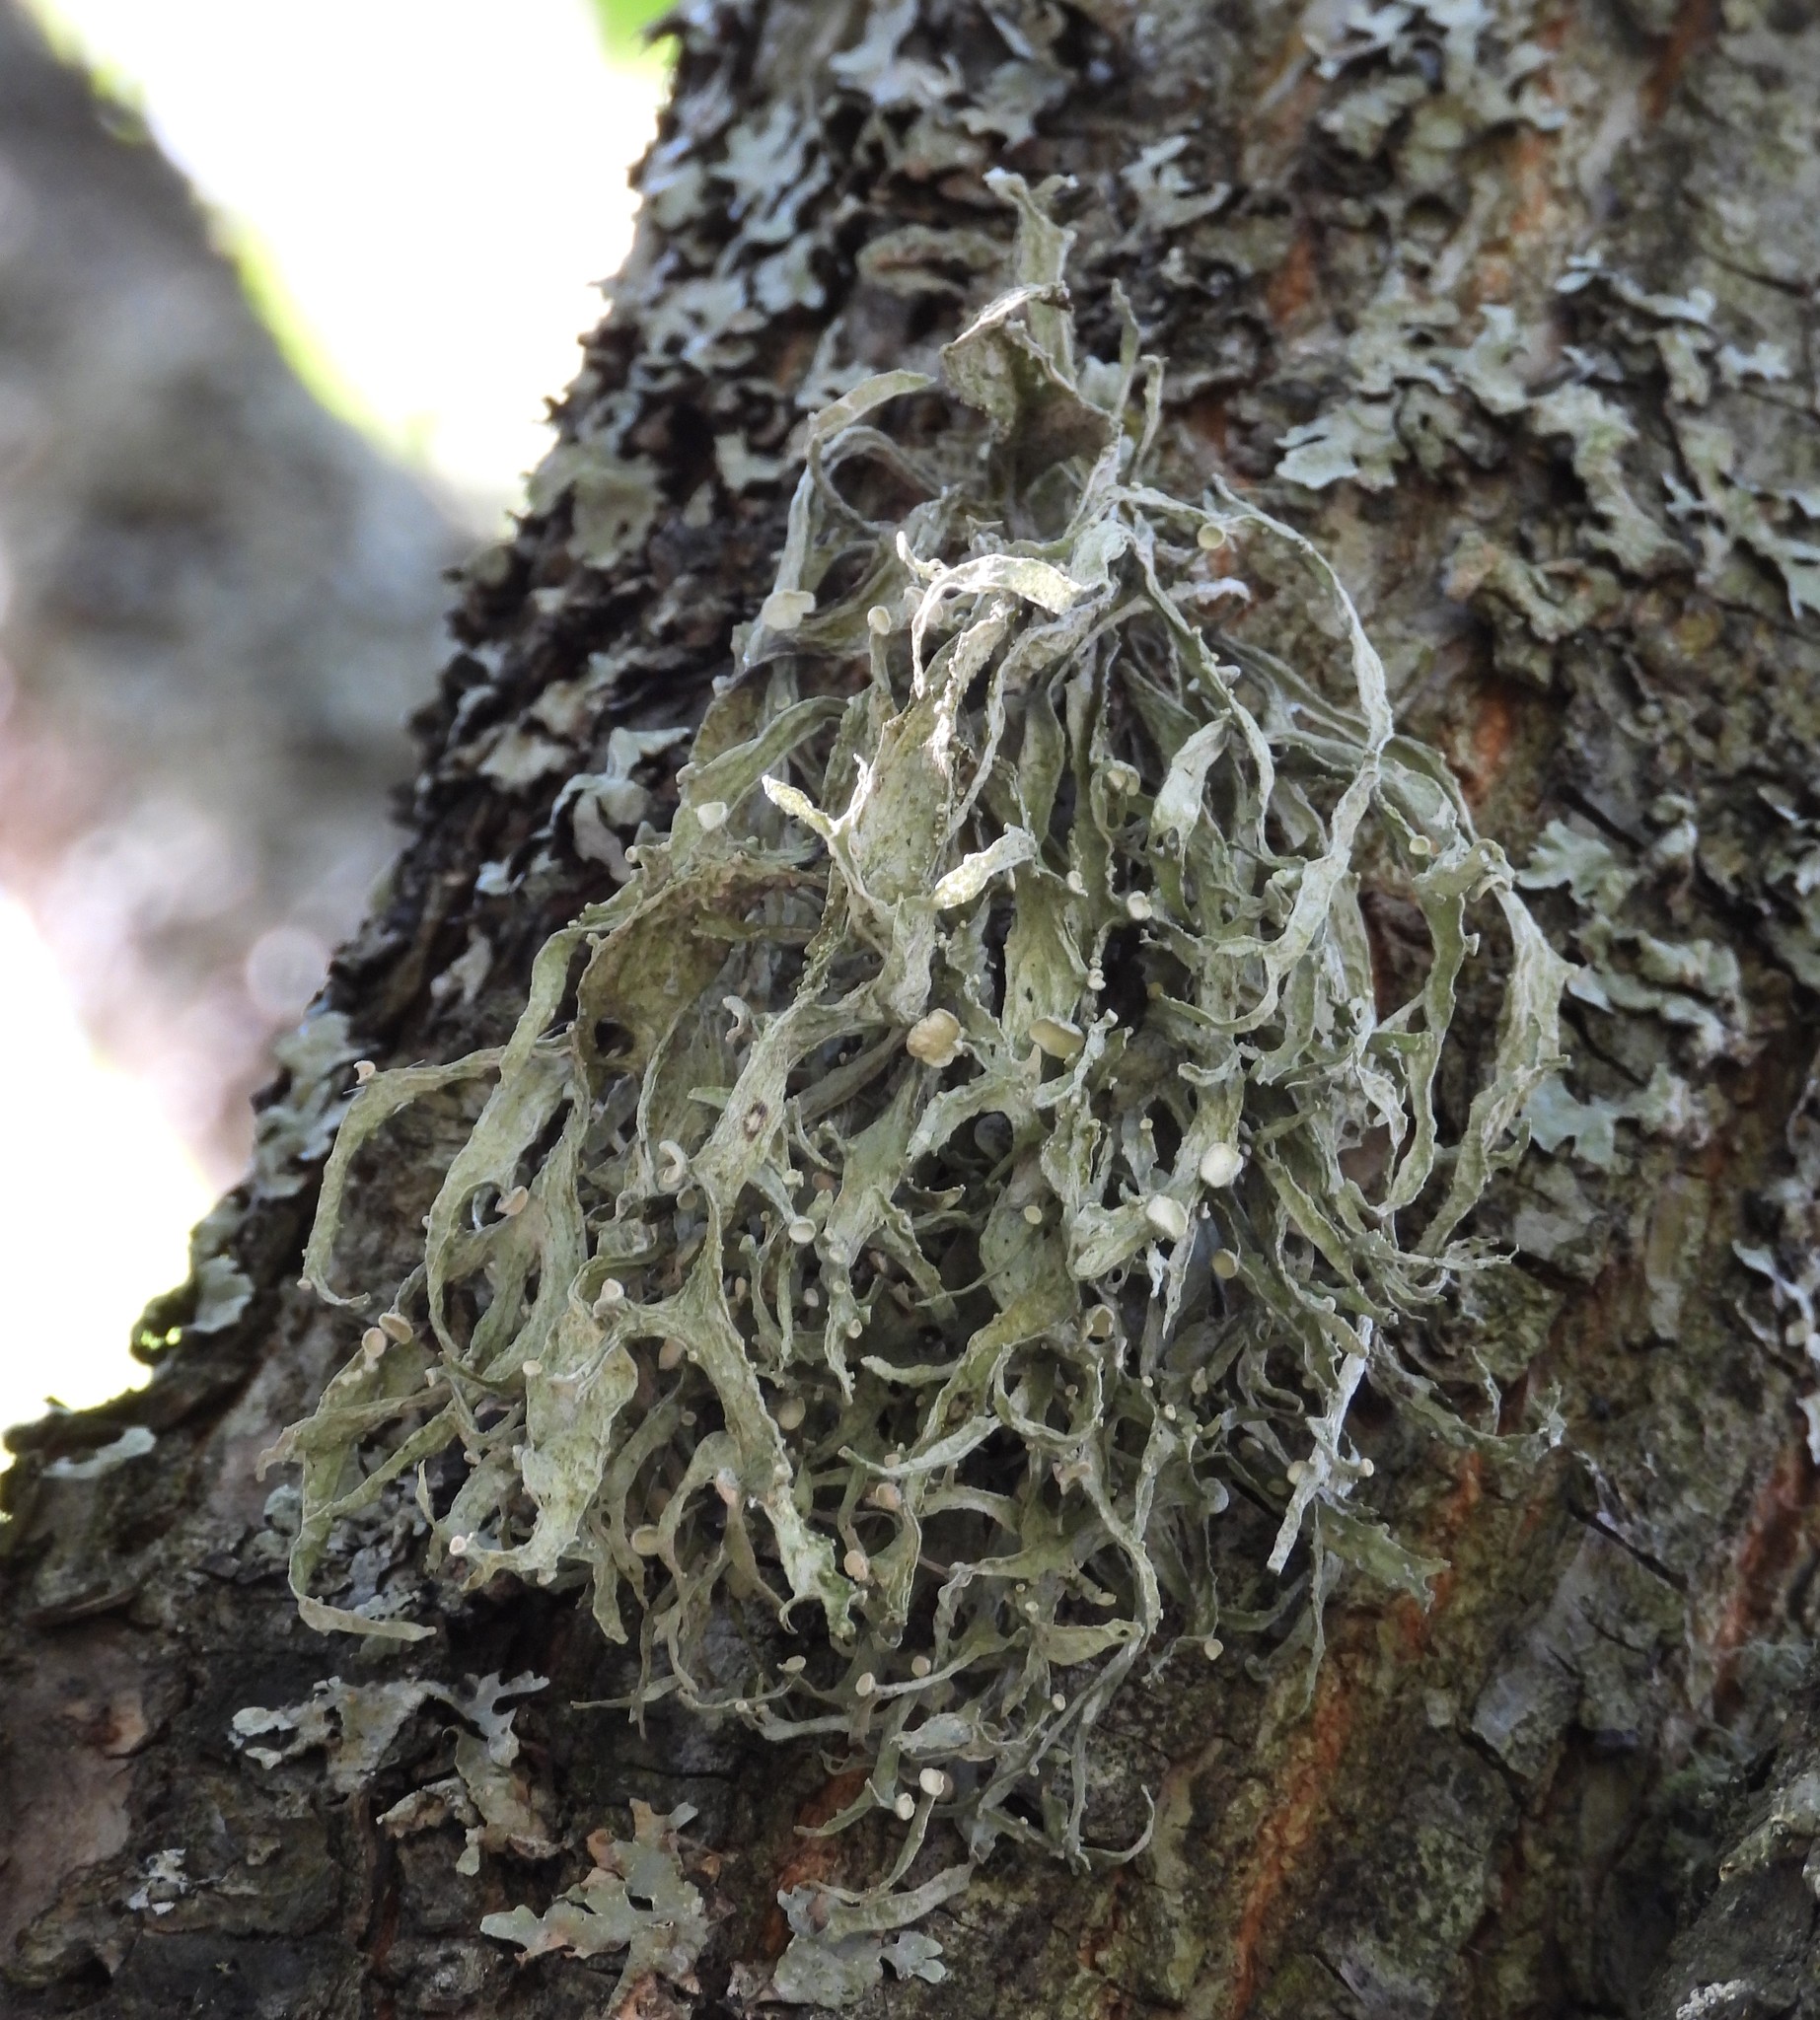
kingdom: Fungi
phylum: Ascomycota
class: Lecanoromycetes
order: Lecanorales
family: Ramalinaceae
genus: Ramalina
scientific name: Ramalina fraxinea
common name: Cartilage lichen
